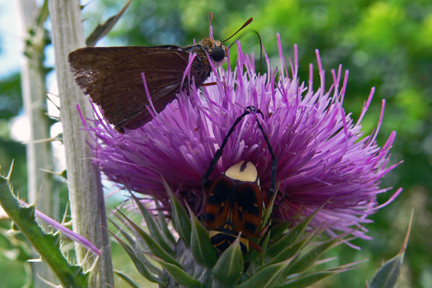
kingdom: Animalia
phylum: Arthropoda
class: Insecta
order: Lepidoptera
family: Hesperiidae
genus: Euphyes
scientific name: Euphyes vestris
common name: Dun skipper
